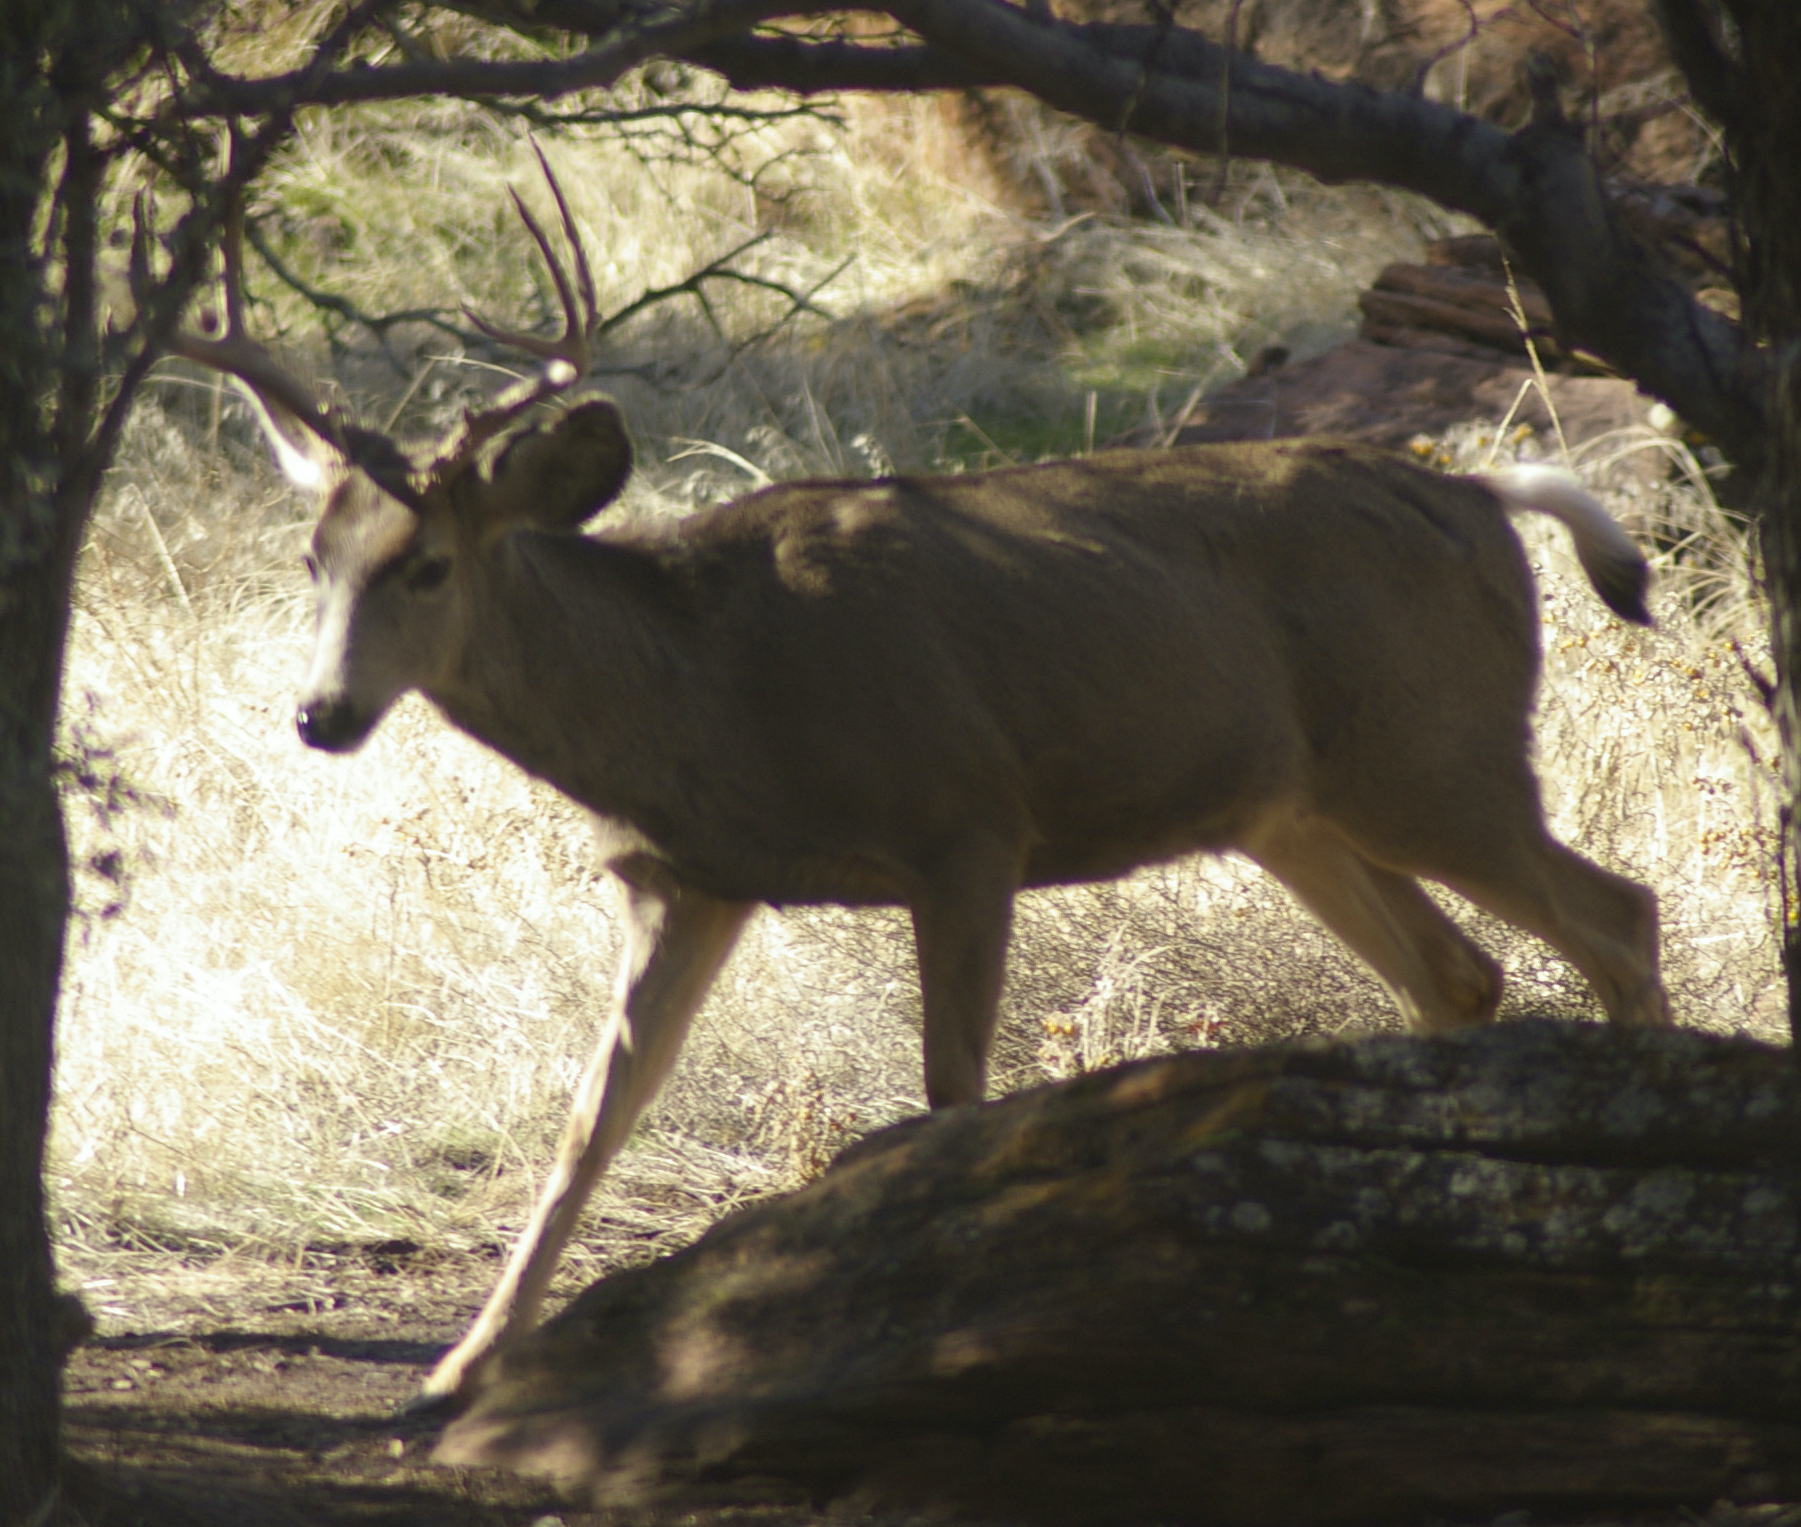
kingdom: Animalia
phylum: Chordata
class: Mammalia
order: Artiodactyla
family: Cervidae
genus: Odocoileus
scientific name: Odocoileus hemionus
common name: Mule deer
